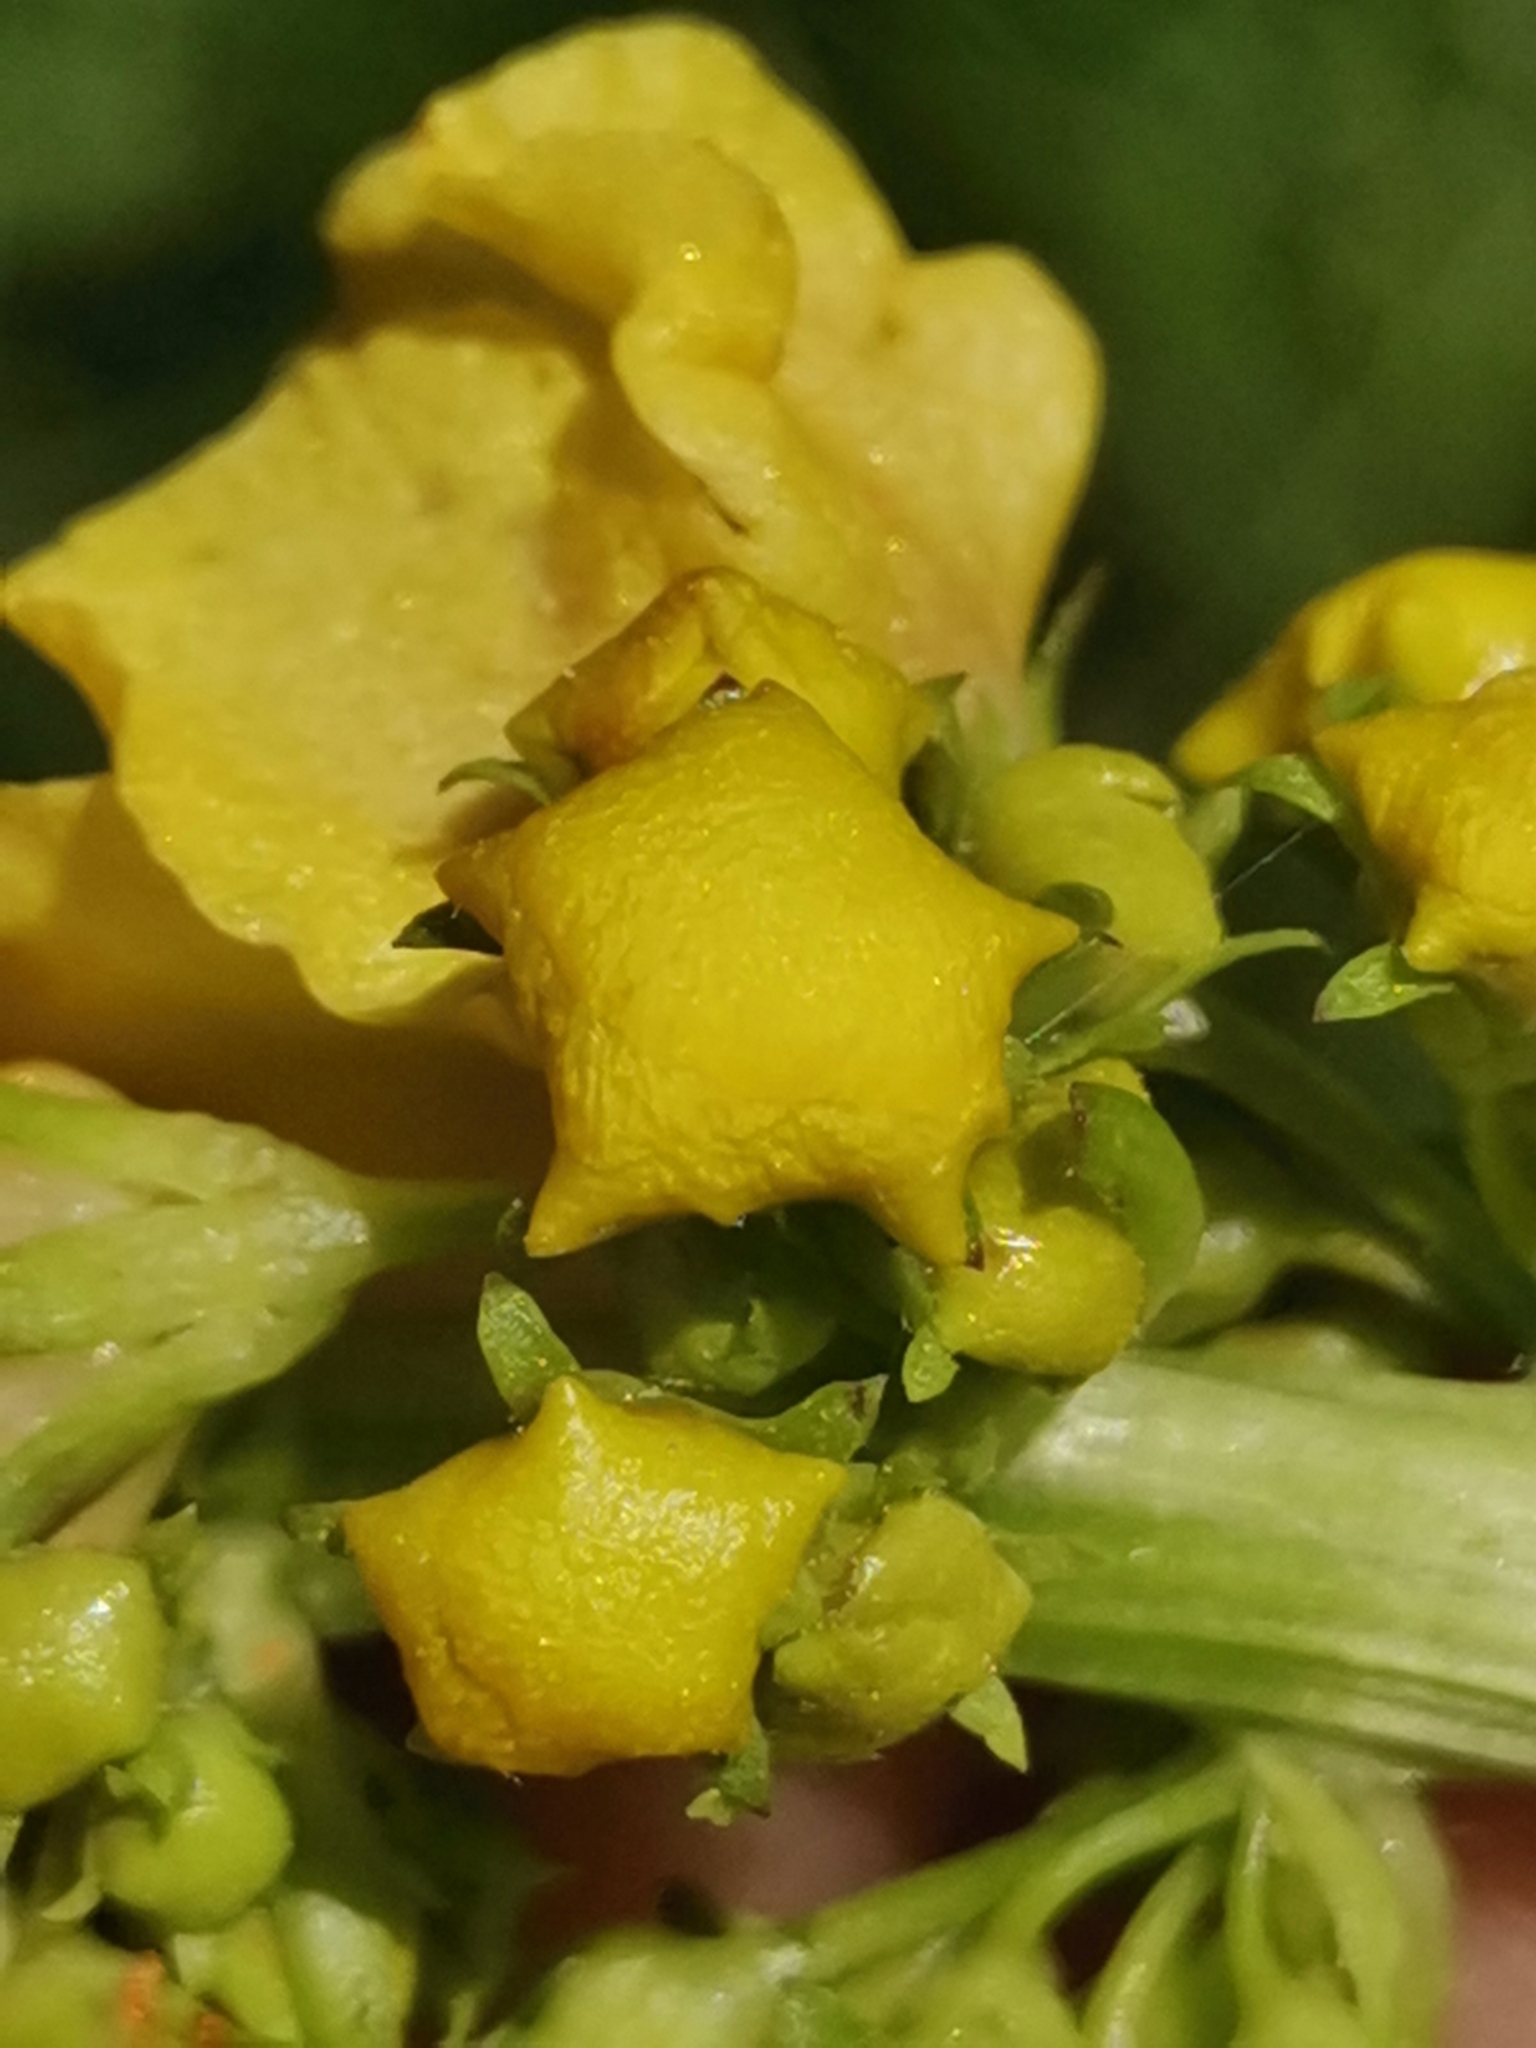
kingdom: Plantae
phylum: Tracheophyta
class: Magnoliopsida
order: Lamiales
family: Scrophulariaceae
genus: Verbascum
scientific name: Verbascum alpinum
